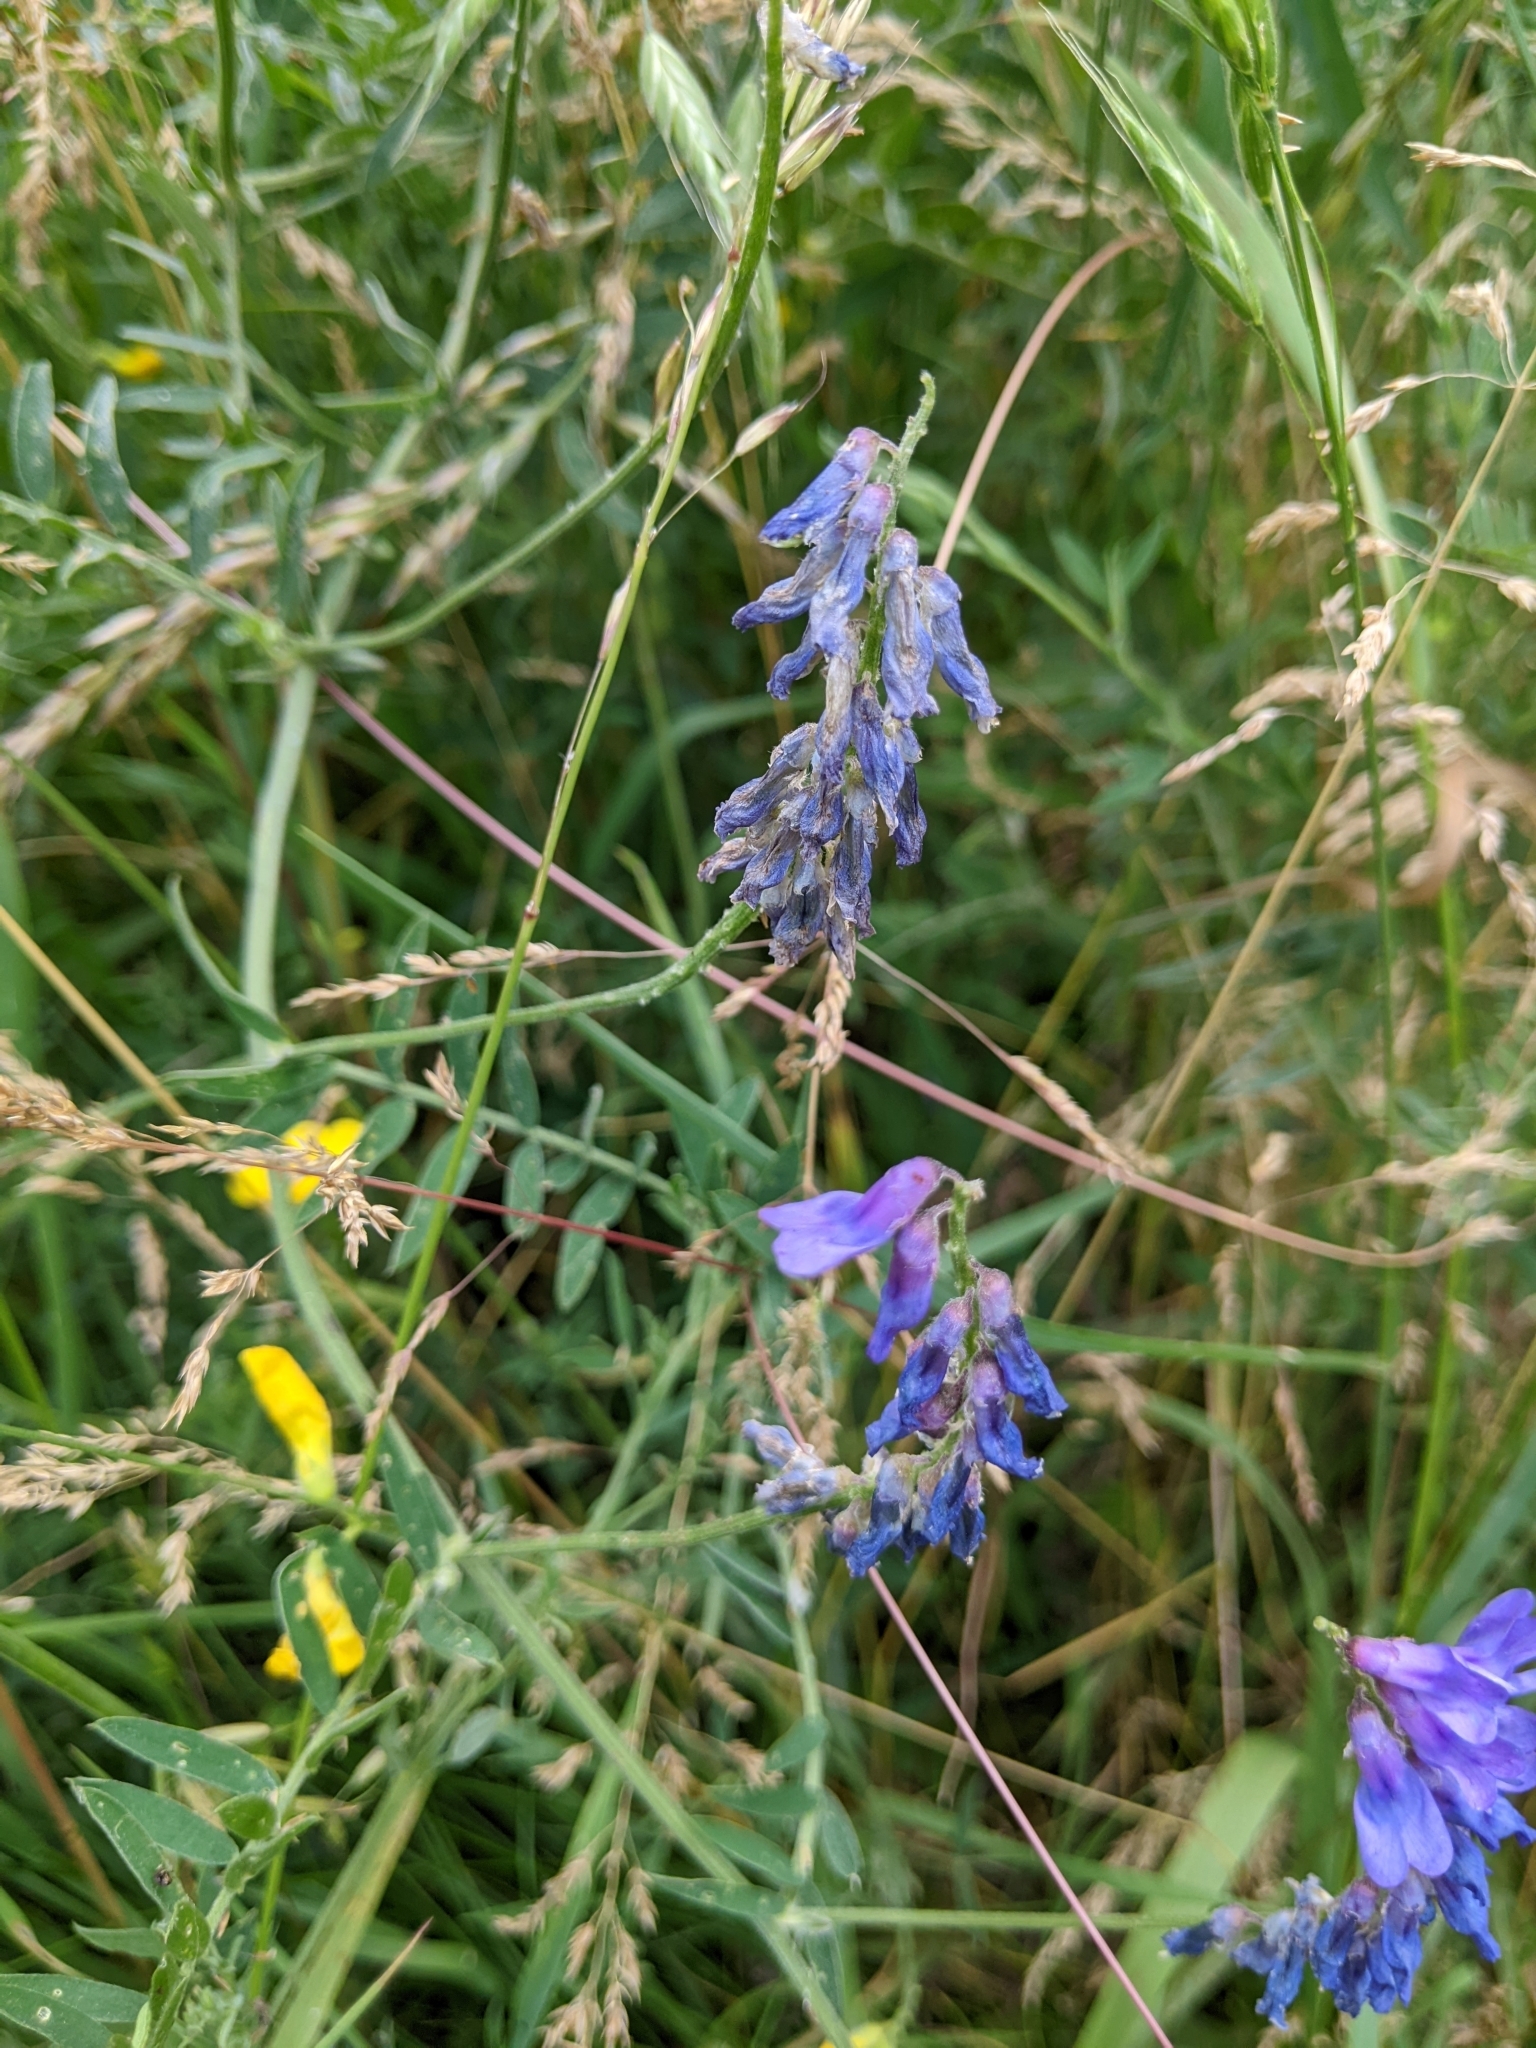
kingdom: Plantae
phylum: Tracheophyta
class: Magnoliopsida
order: Fabales
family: Fabaceae
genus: Vicia
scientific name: Vicia cracca
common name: Bird vetch
